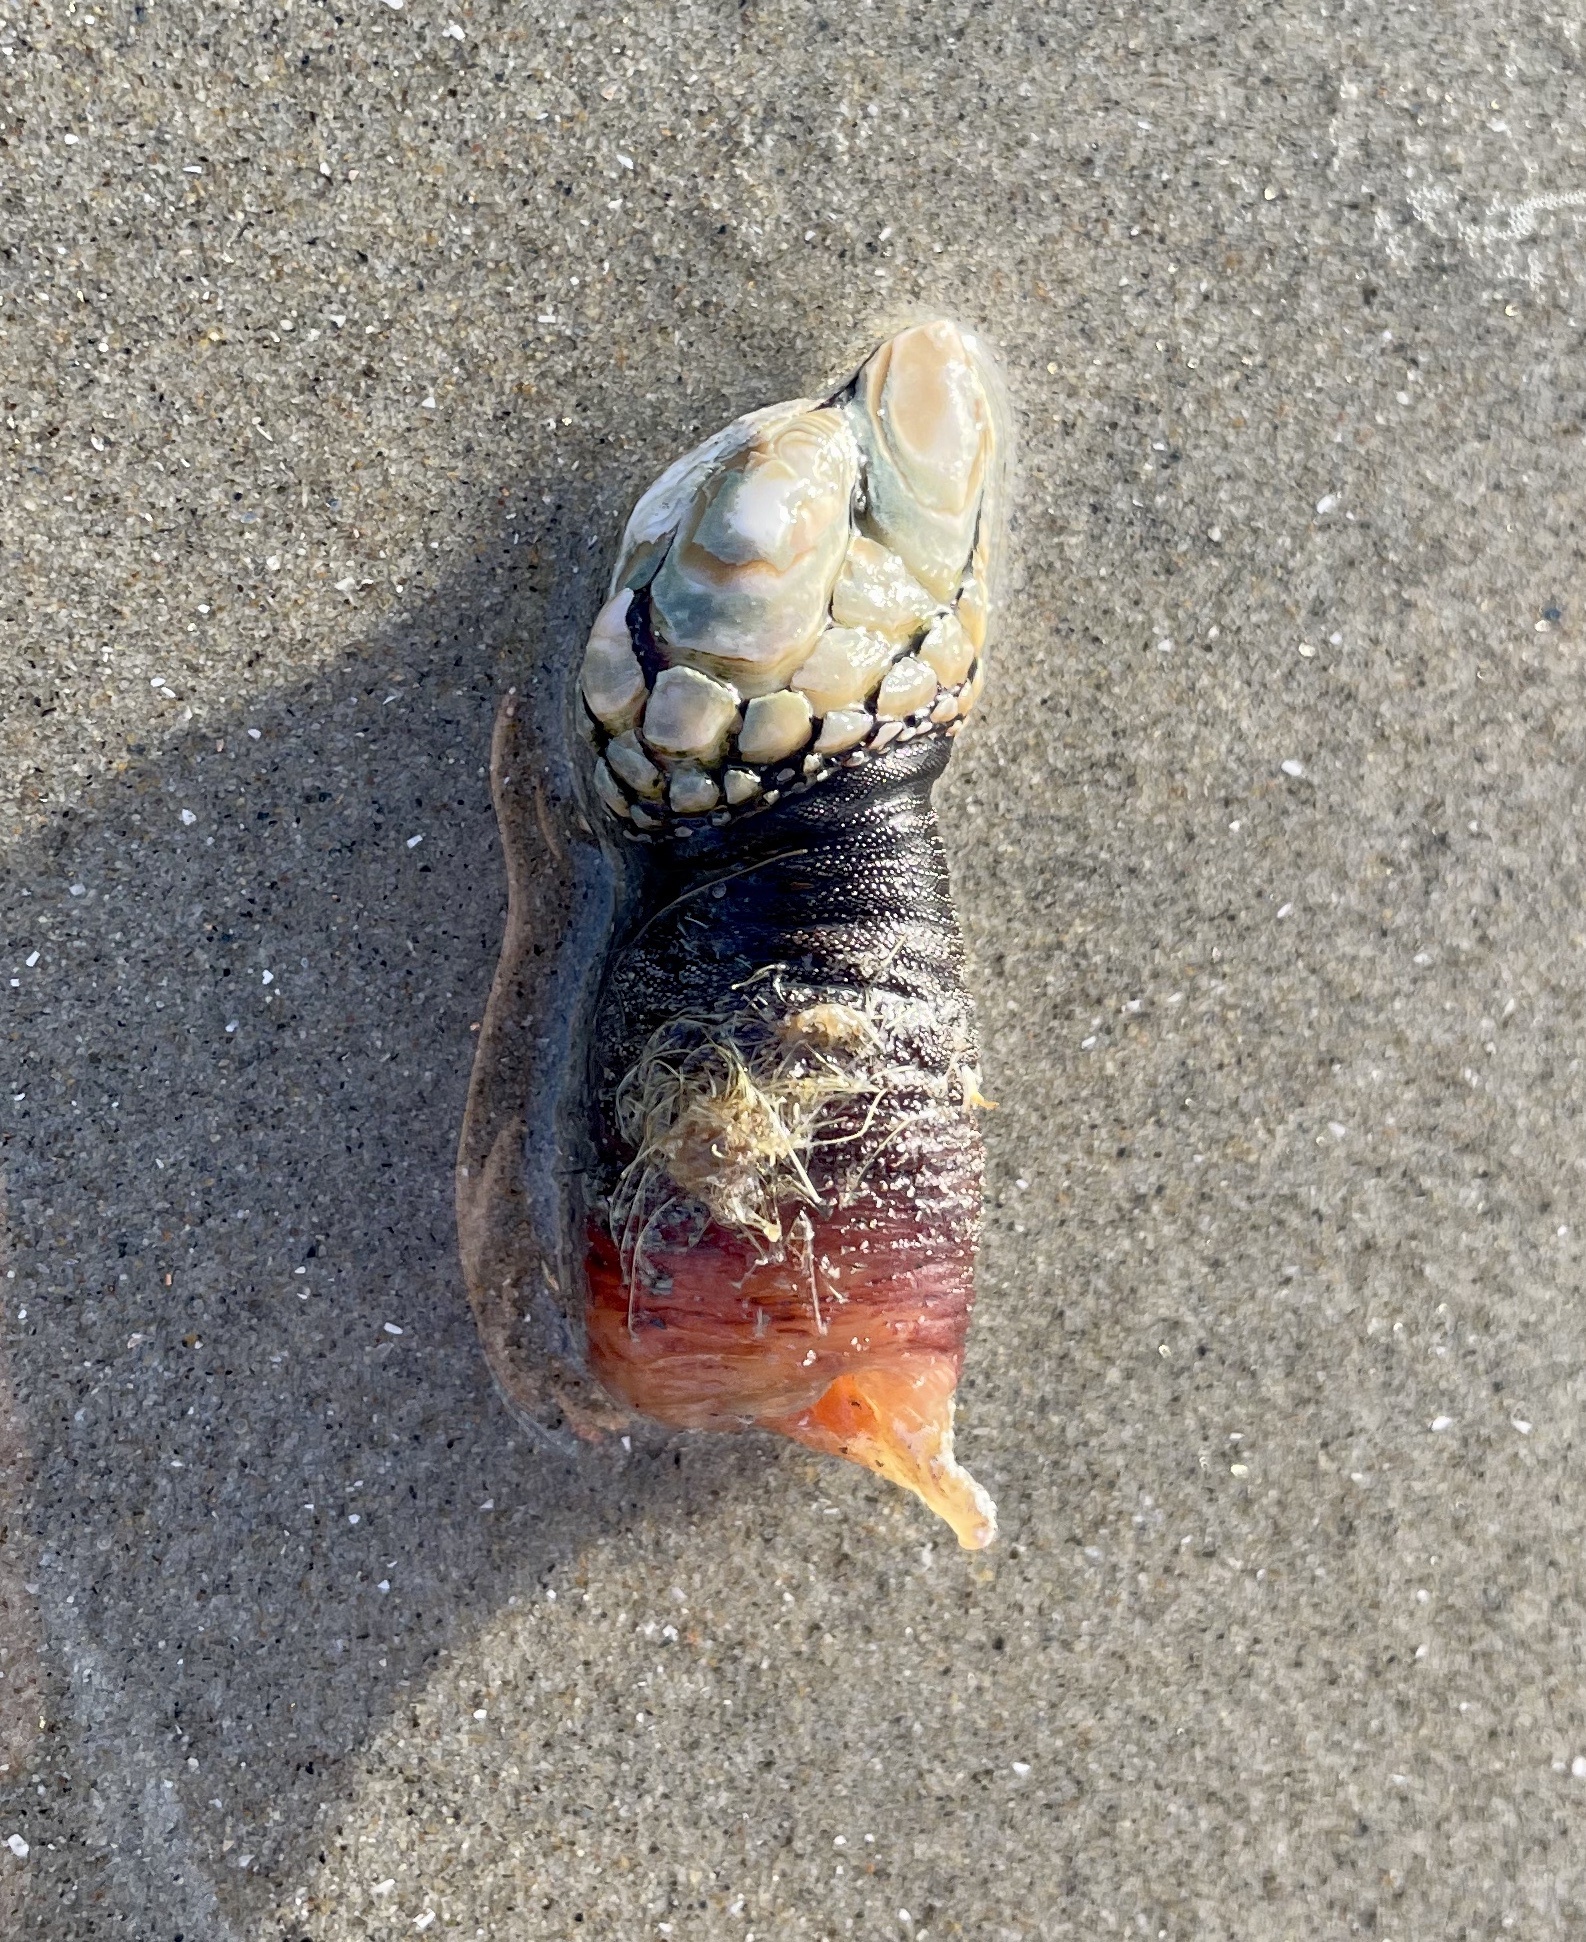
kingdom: Animalia
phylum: Arthropoda
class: Maxillopoda
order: Pedunculata
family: Pollicipedidae
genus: Pollicipes
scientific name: Pollicipes polymerus
